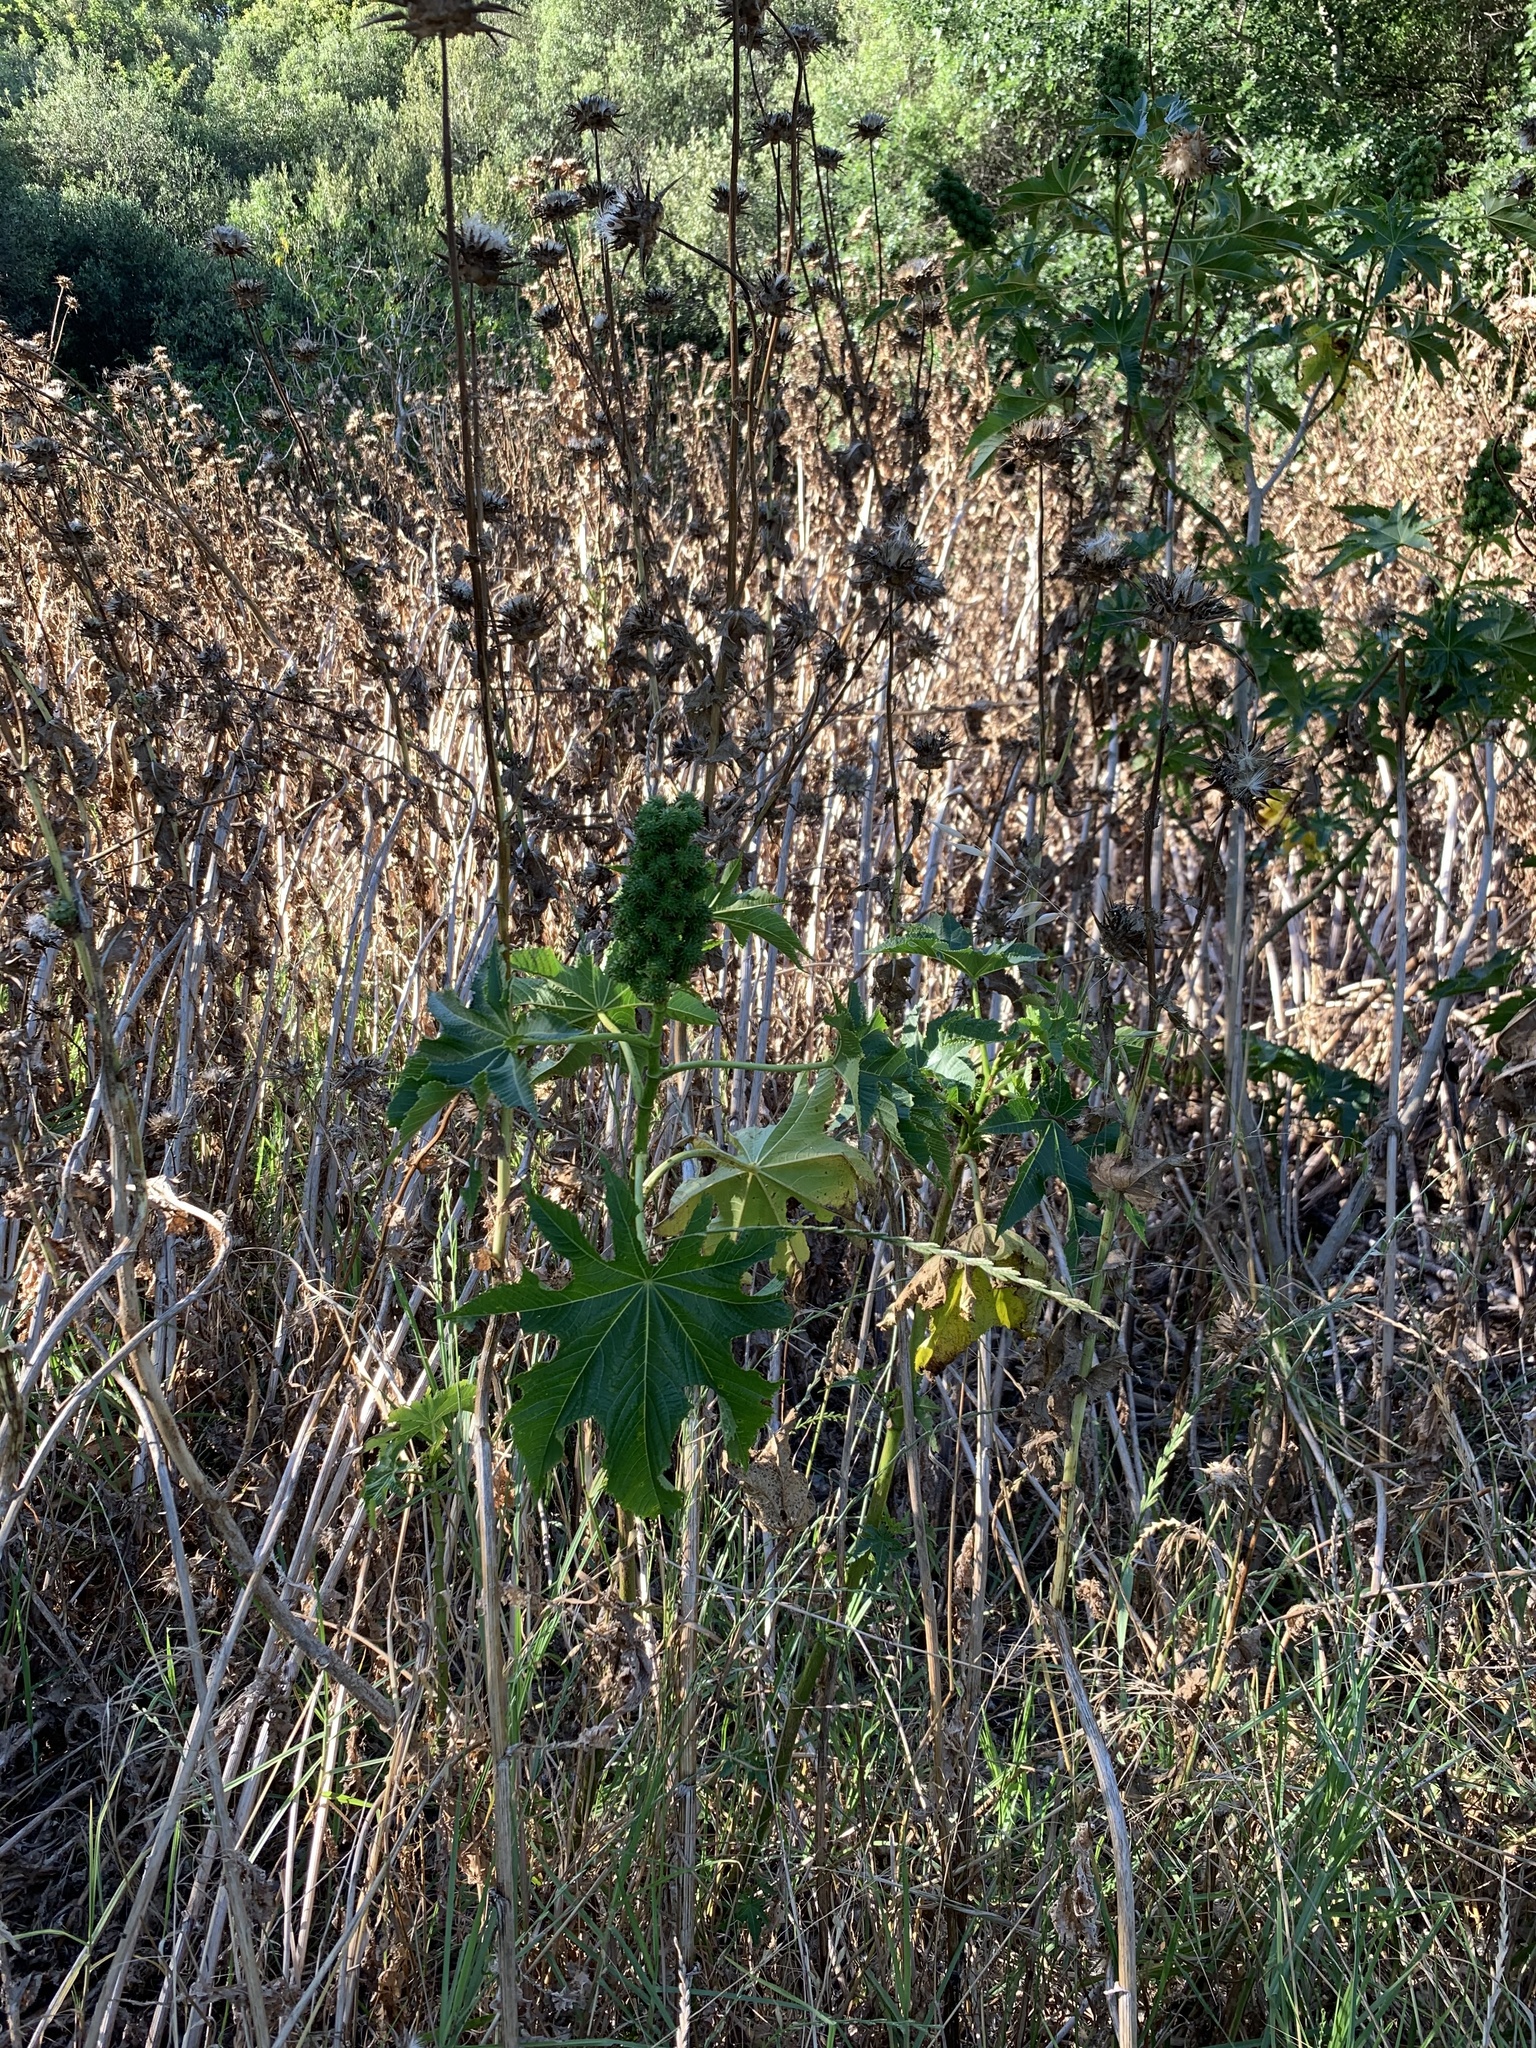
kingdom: Plantae
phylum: Tracheophyta
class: Magnoliopsida
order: Malpighiales
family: Euphorbiaceae
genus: Ricinus
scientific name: Ricinus communis
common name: Castor-oil-plant
